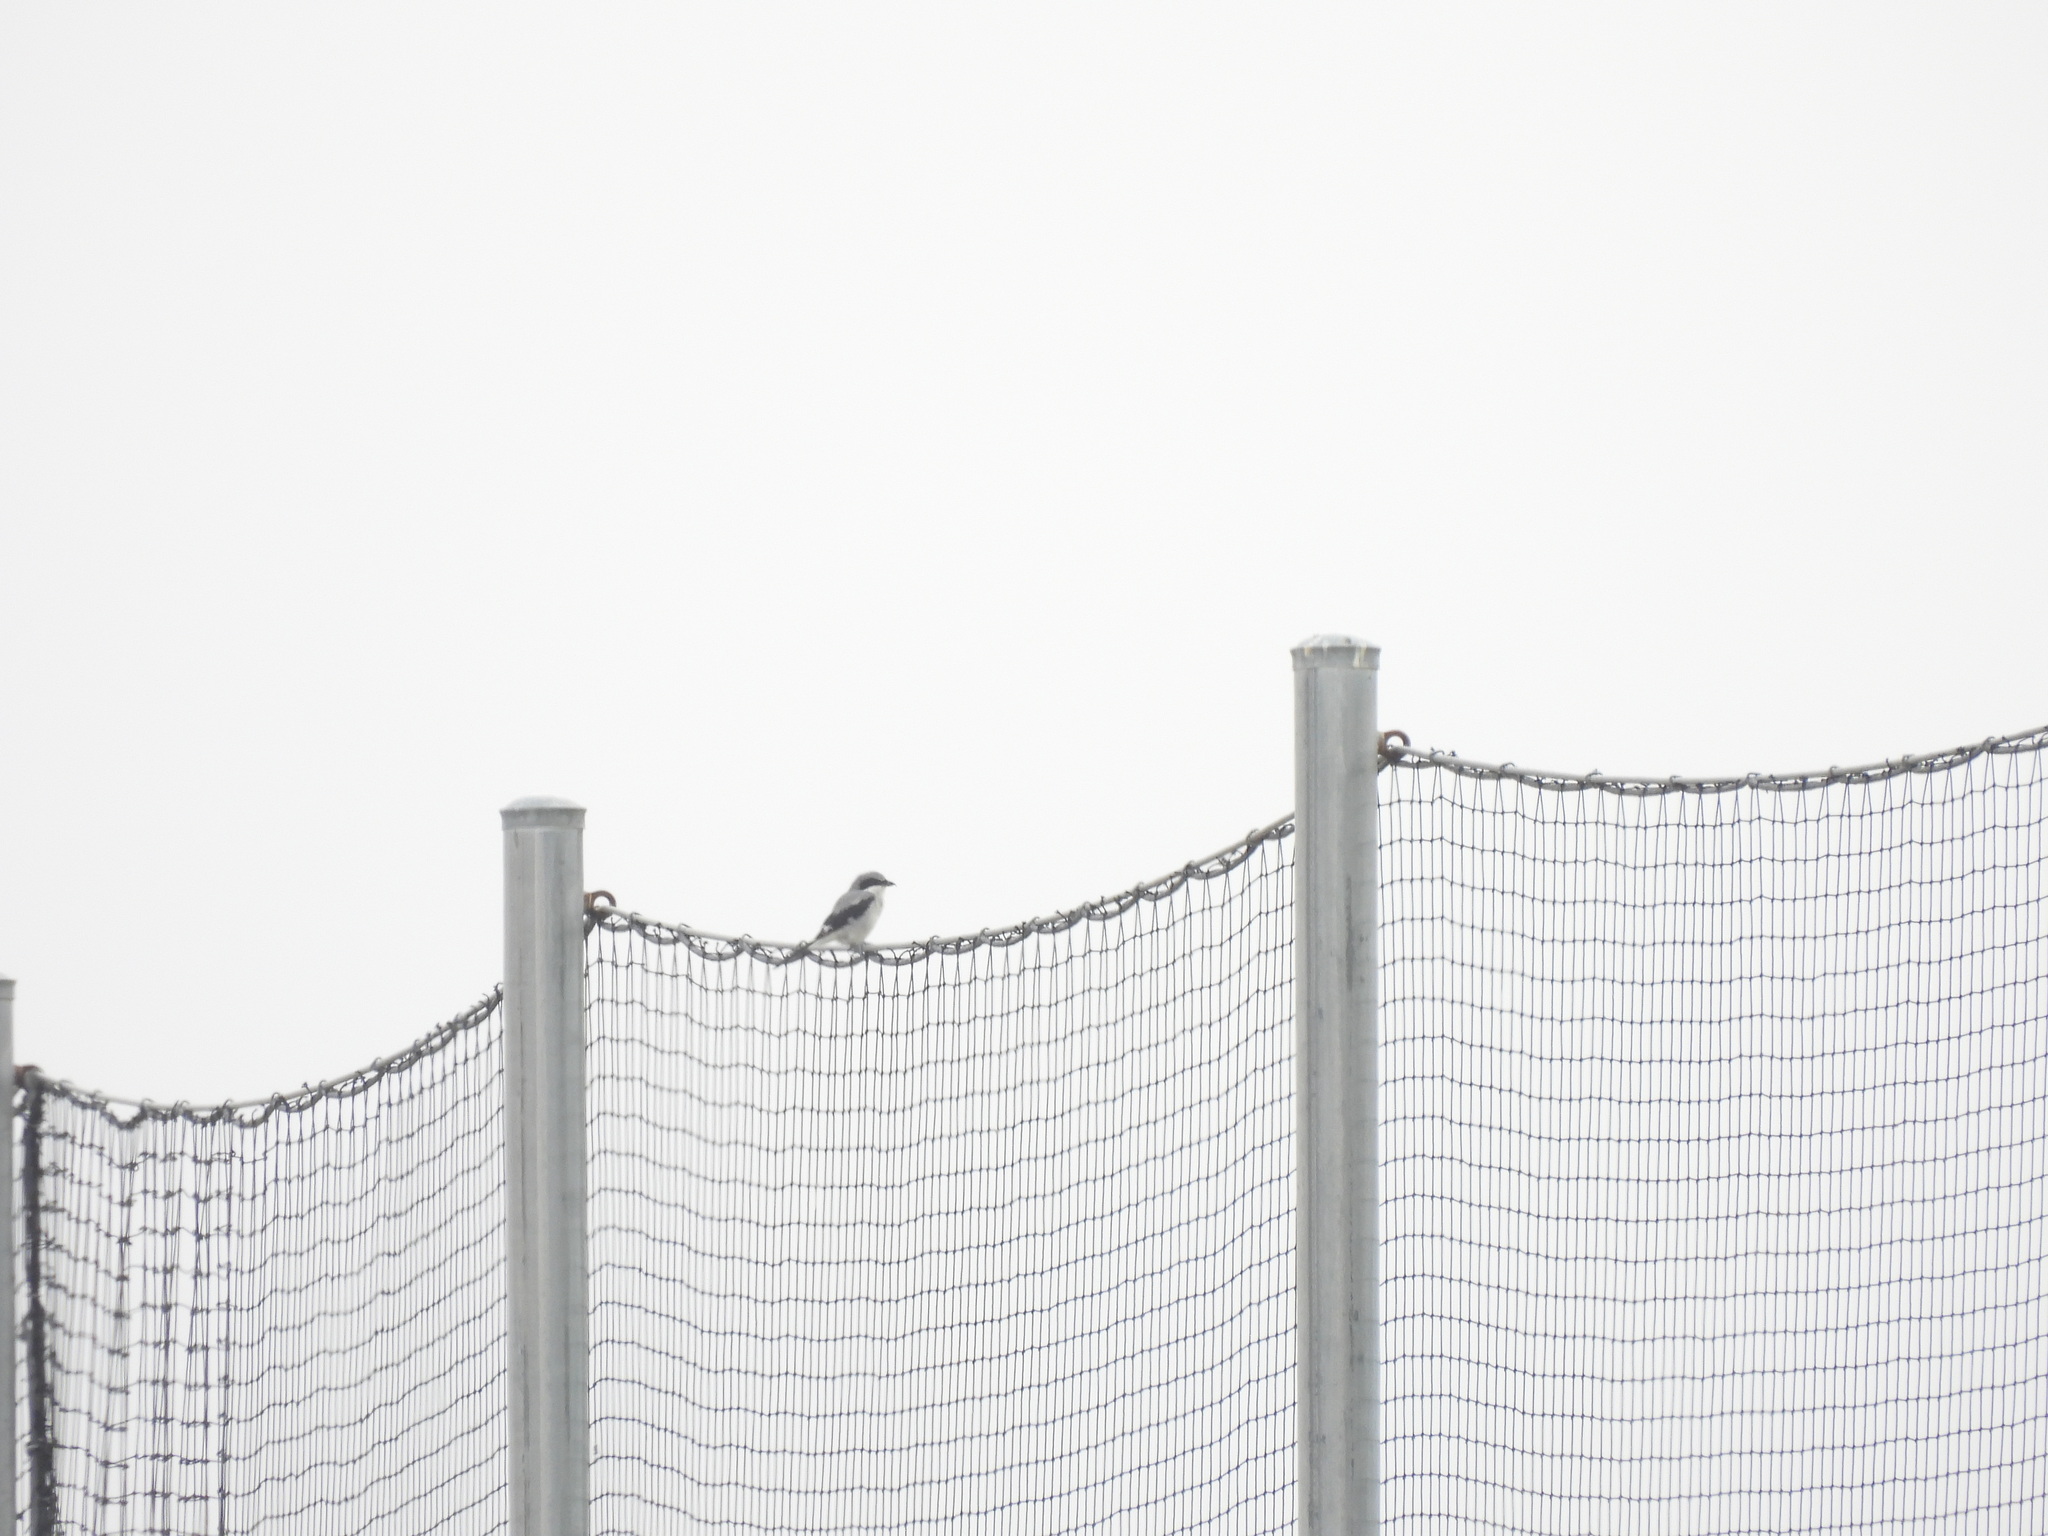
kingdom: Animalia
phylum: Chordata
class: Aves
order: Passeriformes
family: Laniidae
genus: Lanius
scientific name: Lanius ludovicianus
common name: Loggerhead shrike
